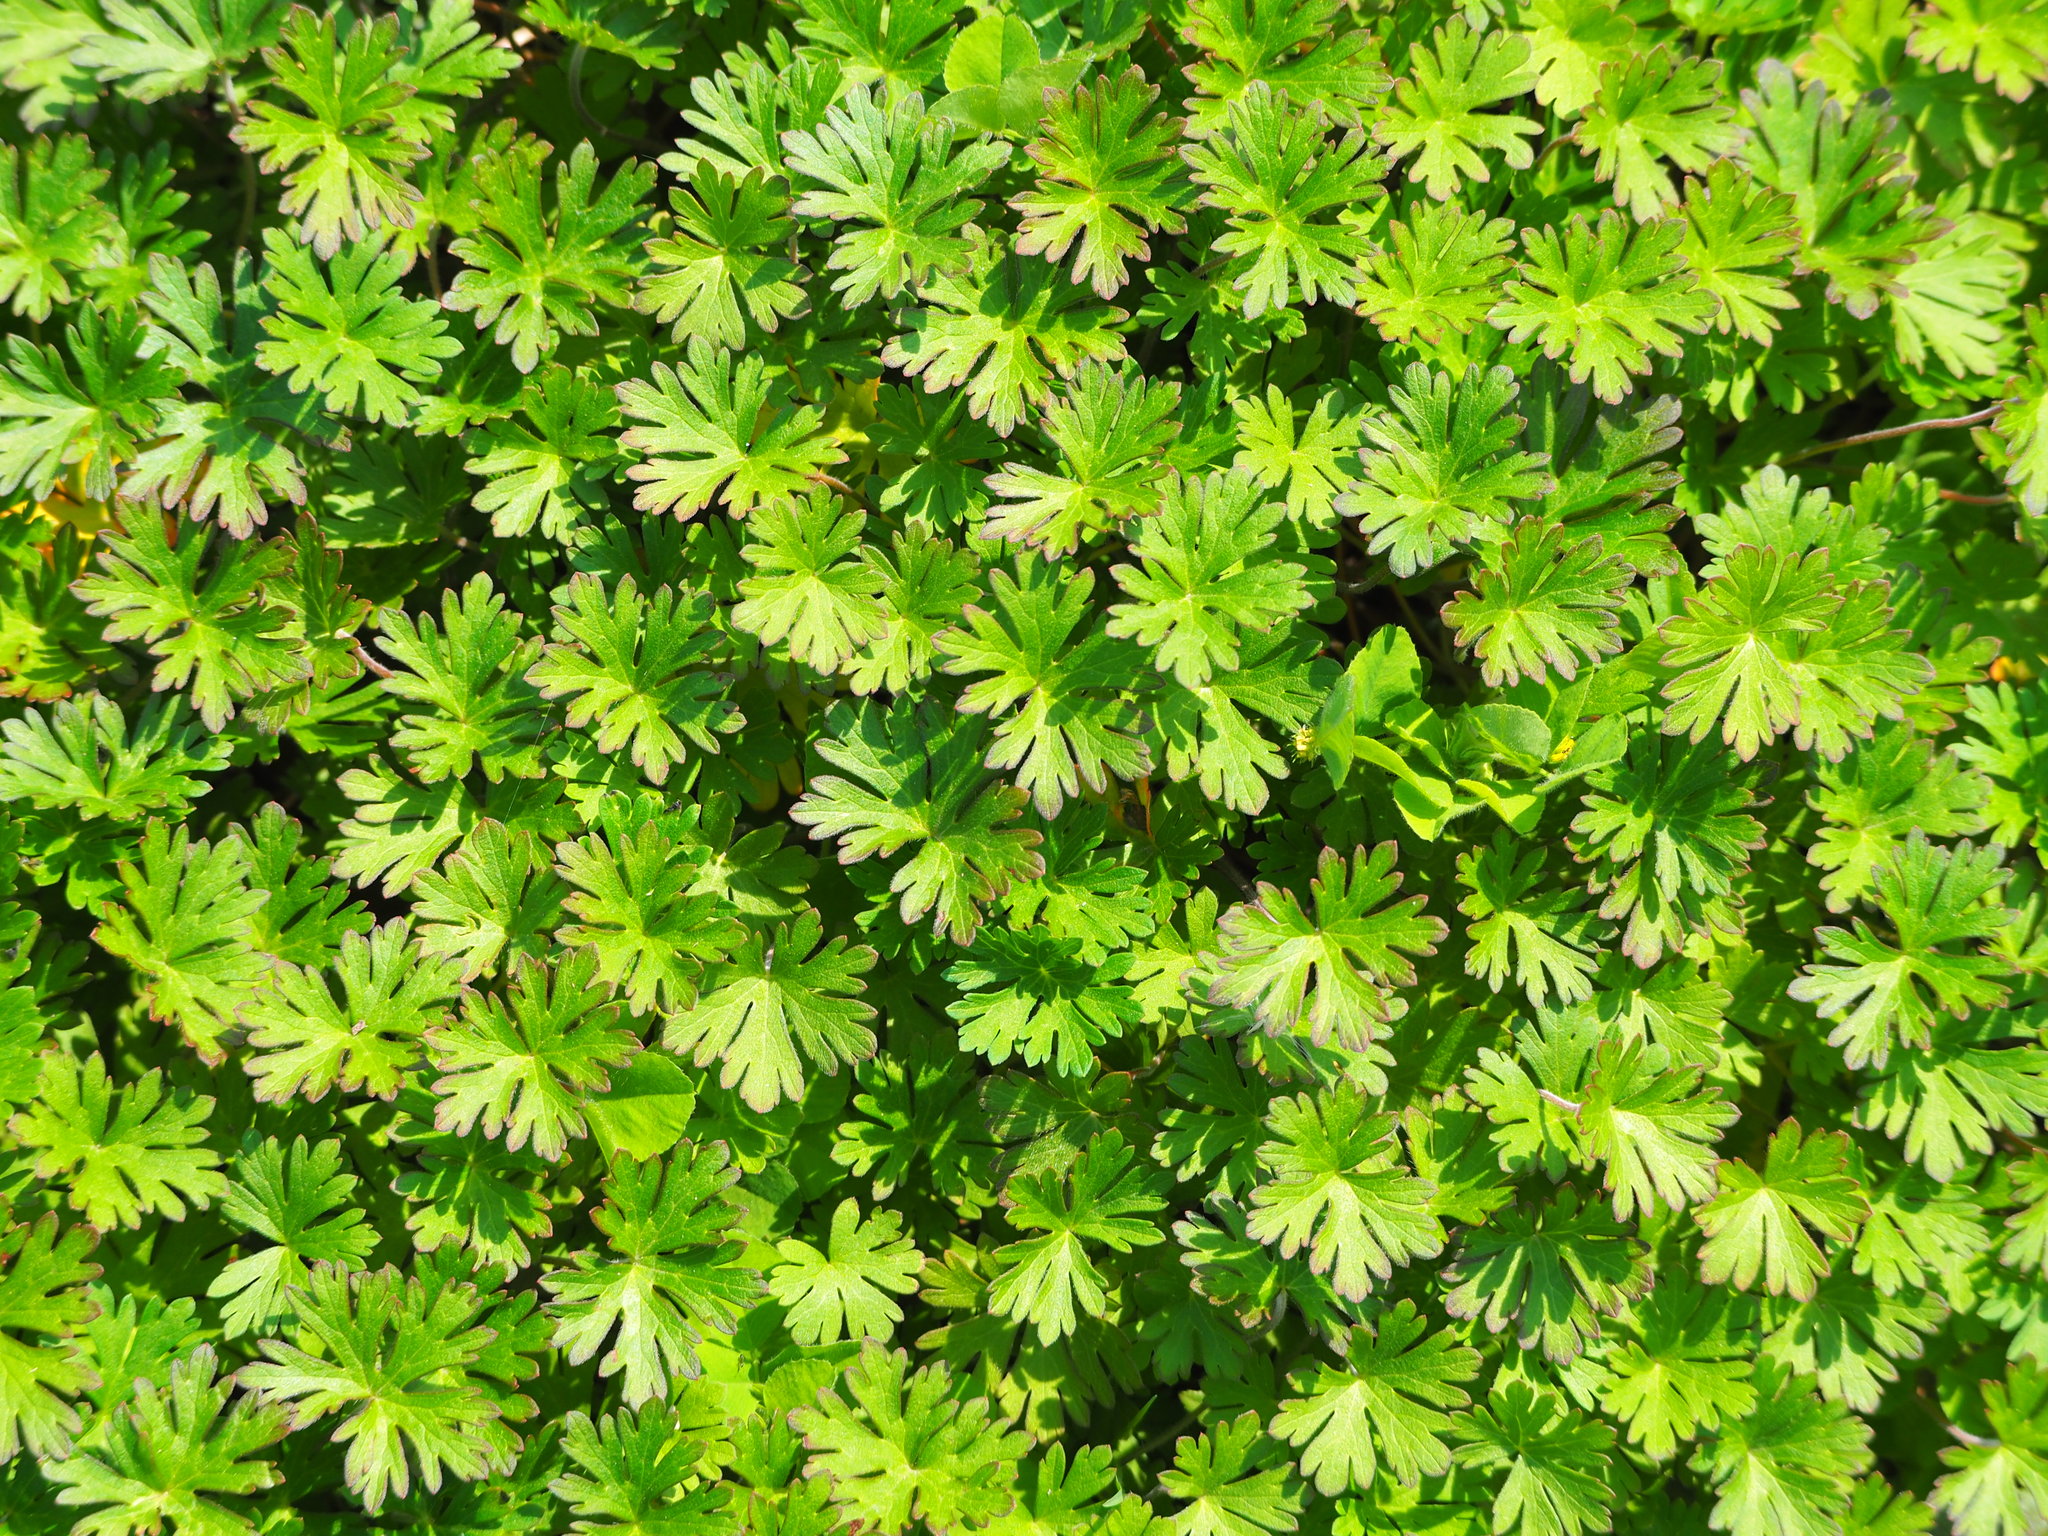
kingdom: Plantae
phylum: Tracheophyta
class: Magnoliopsida
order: Geraniales
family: Geraniaceae
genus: Geranium
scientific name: Geranium carolinianum
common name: Carolina crane's-bill
